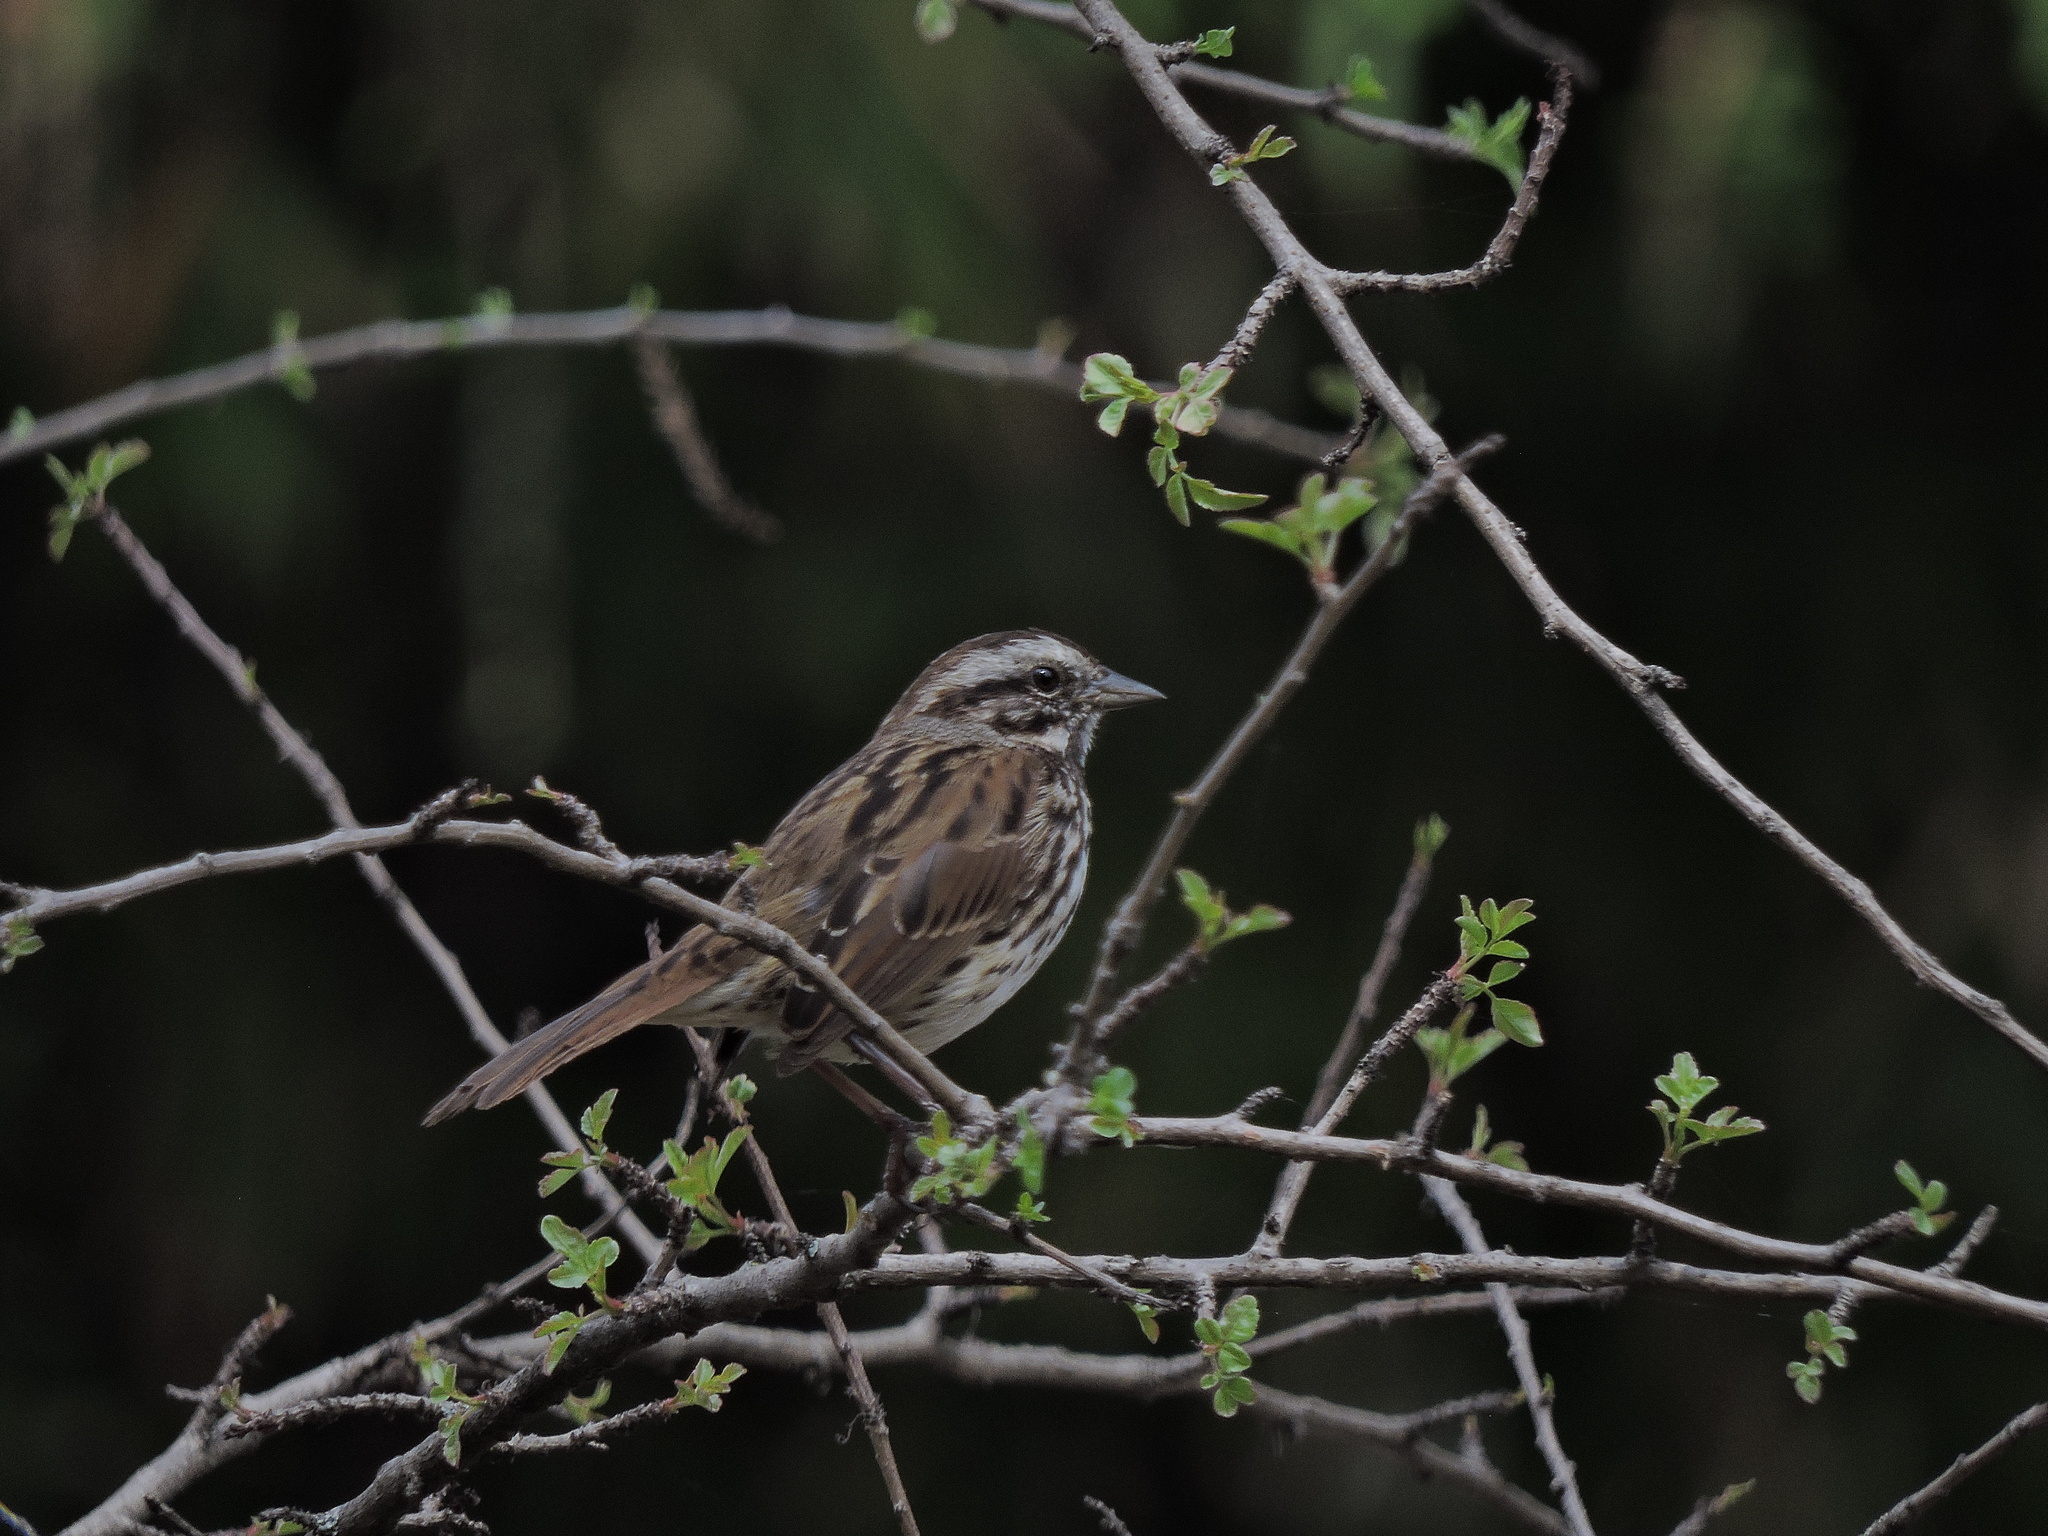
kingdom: Animalia
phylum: Chordata
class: Aves
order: Passeriformes
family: Passerellidae
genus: Melospiza
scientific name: Melospiza melodia
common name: Song sparrow
